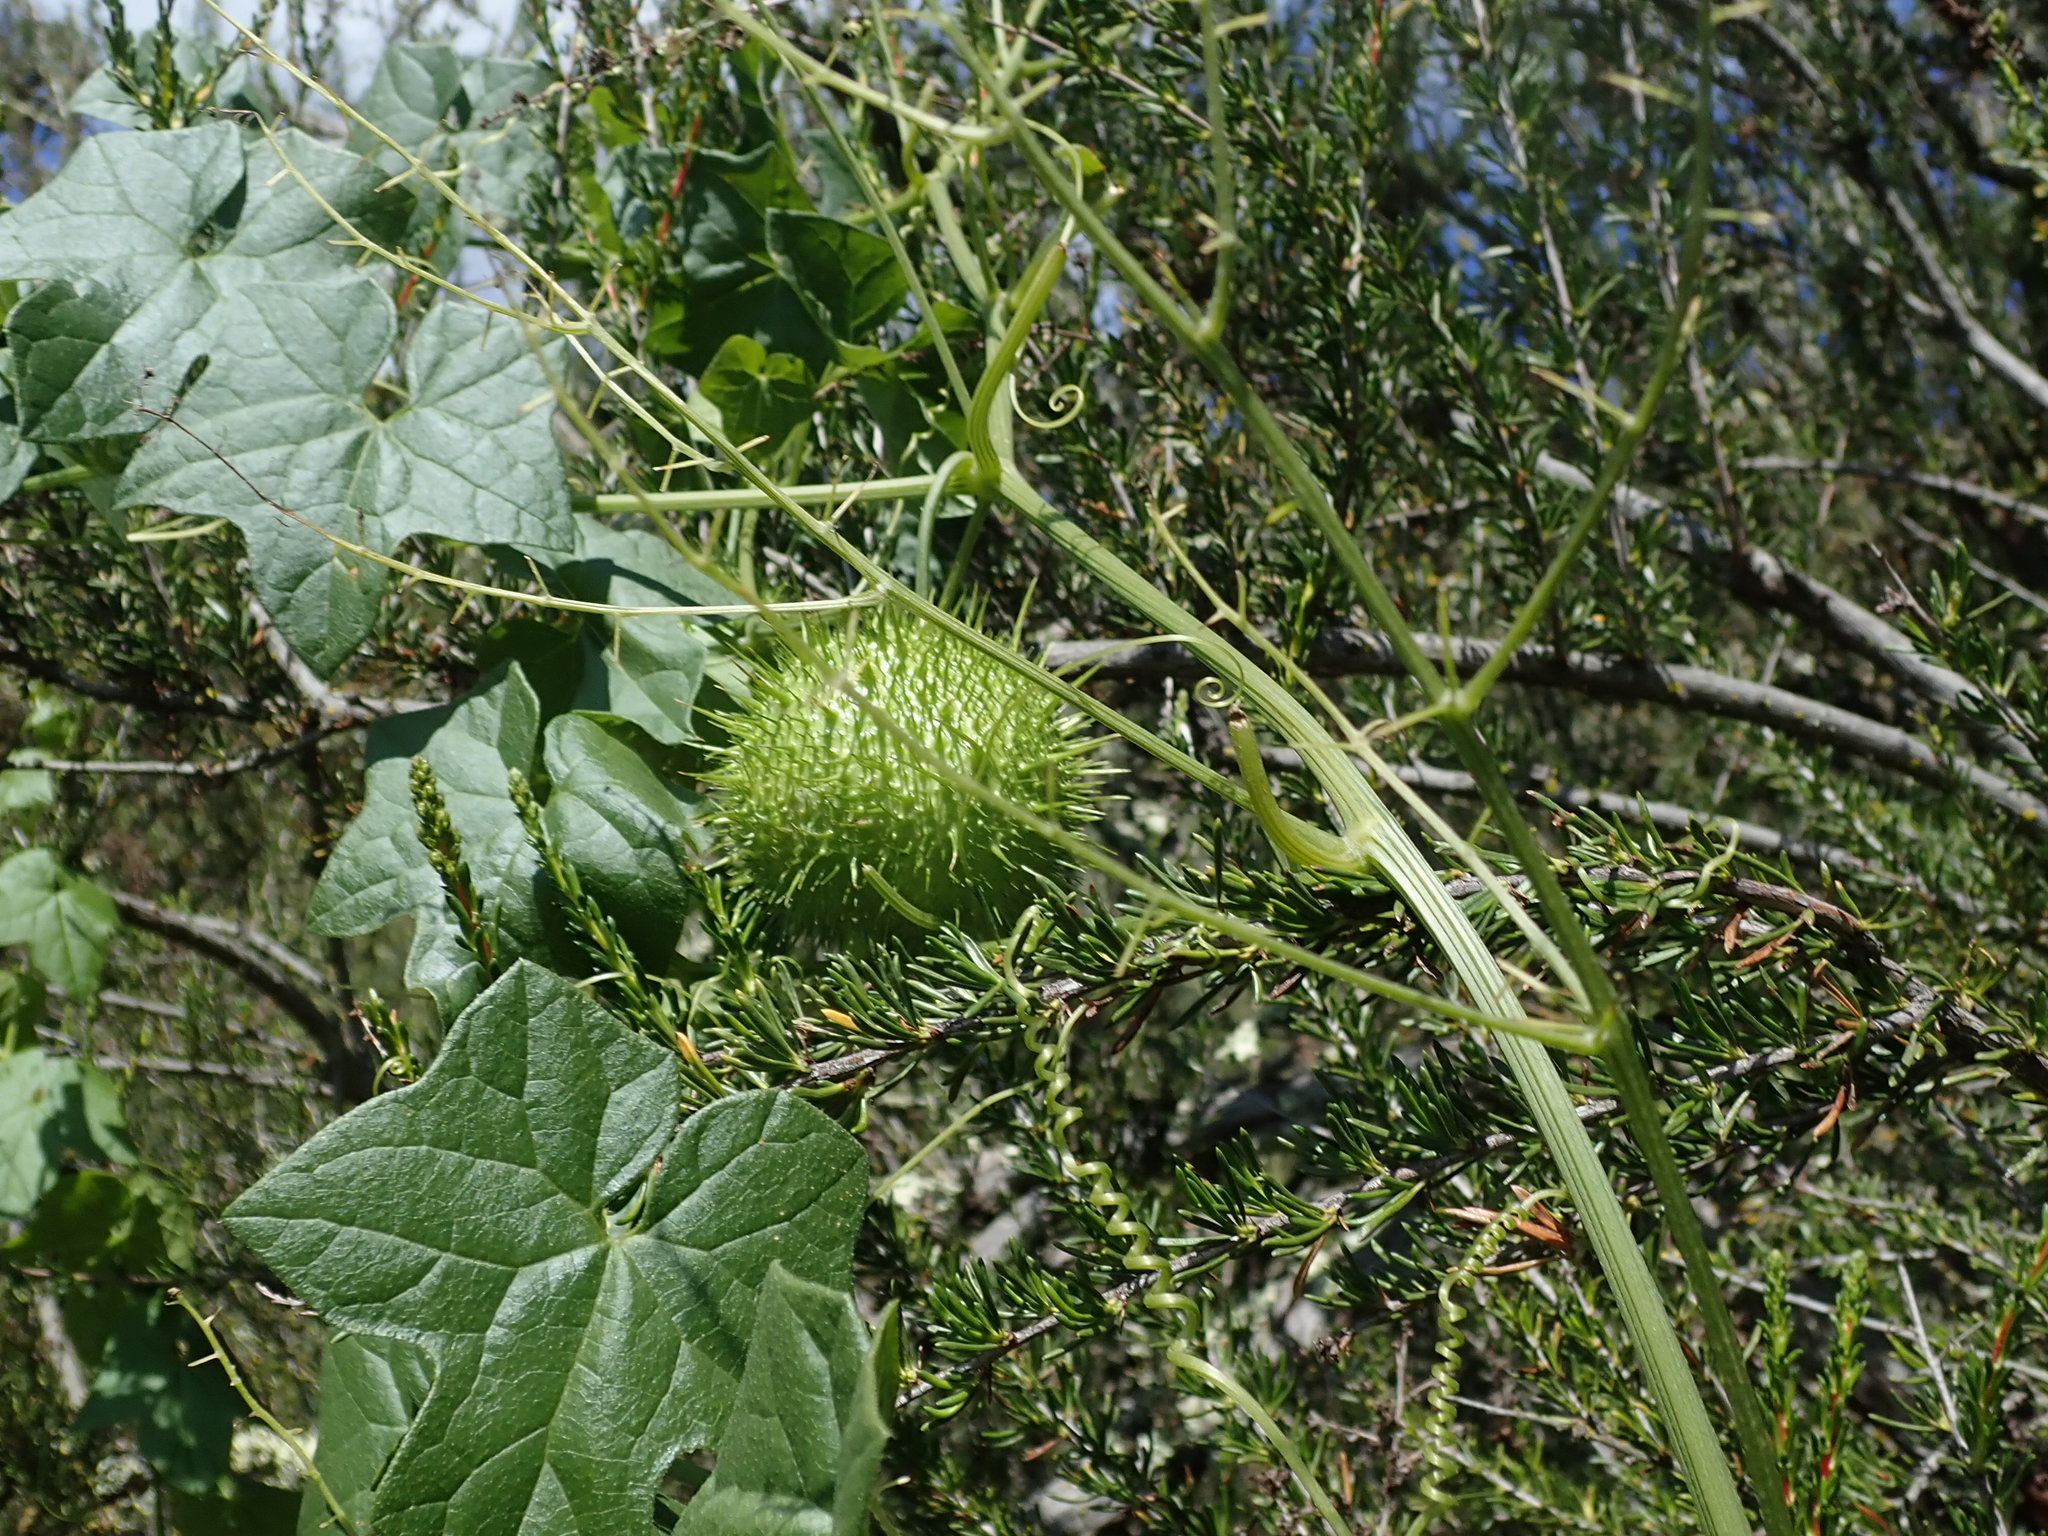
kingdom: Plantae
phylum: Tracheophyta
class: Magnoliopsida
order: Cucurbitales
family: Cucurbitaceae
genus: Marah
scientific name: Marah fabacea
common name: California manroot
